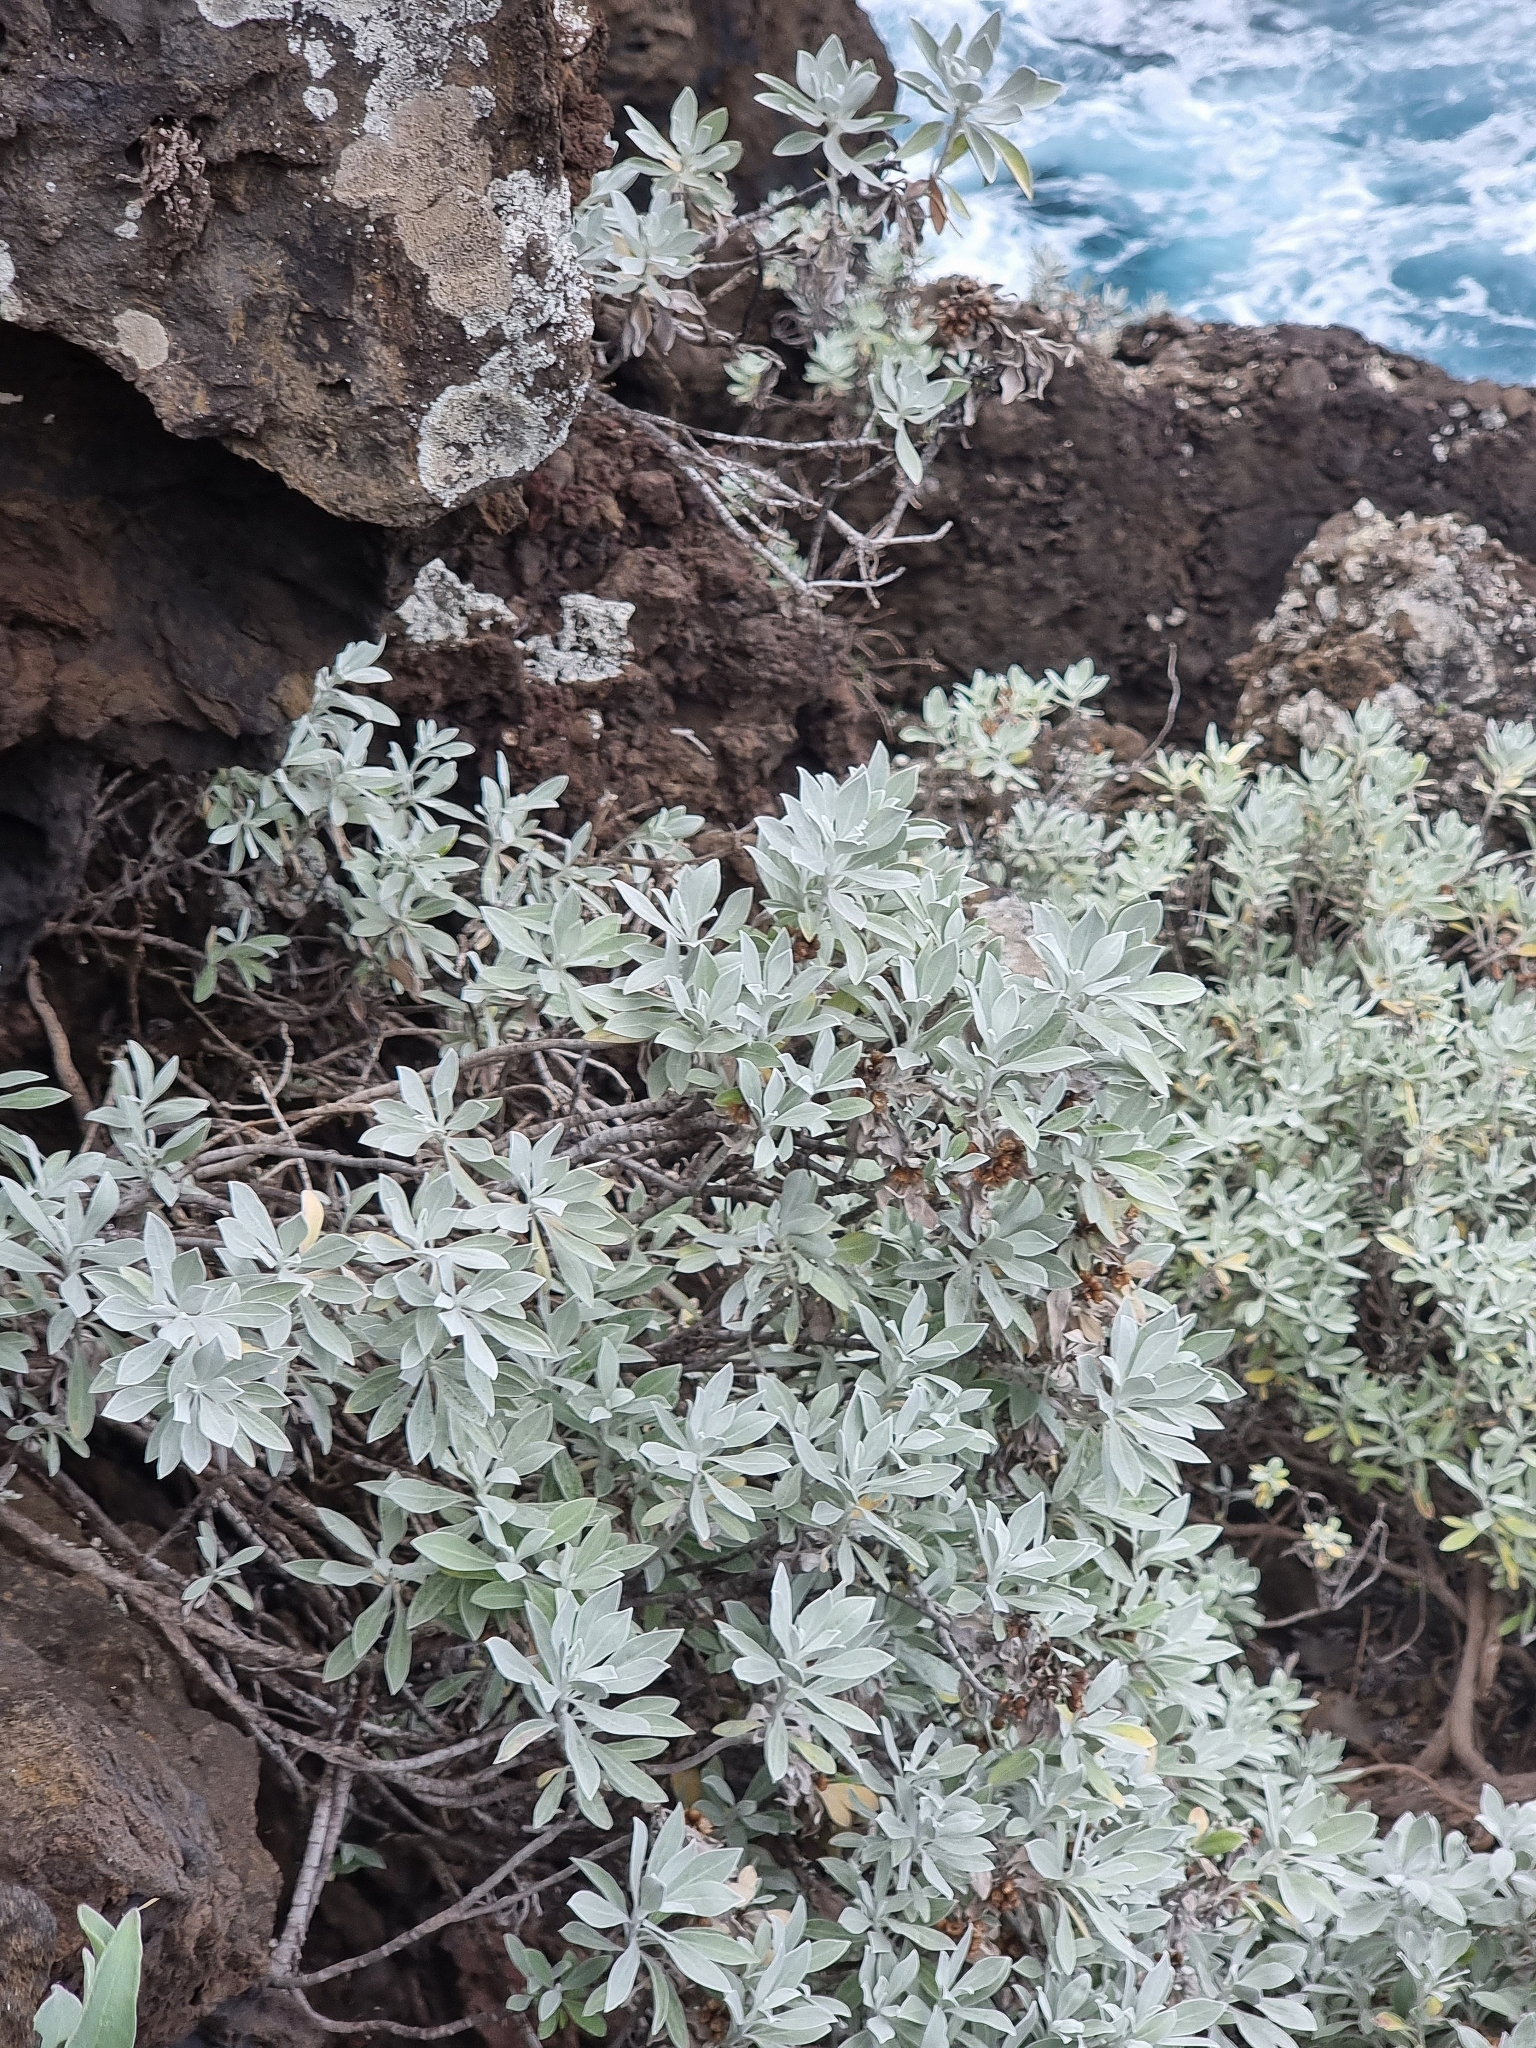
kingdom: Plantae
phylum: Tracheophyta
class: Magnoliopsida
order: Asterales
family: Asteraceae
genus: Helichrysum
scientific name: Helichrysum obconicum
